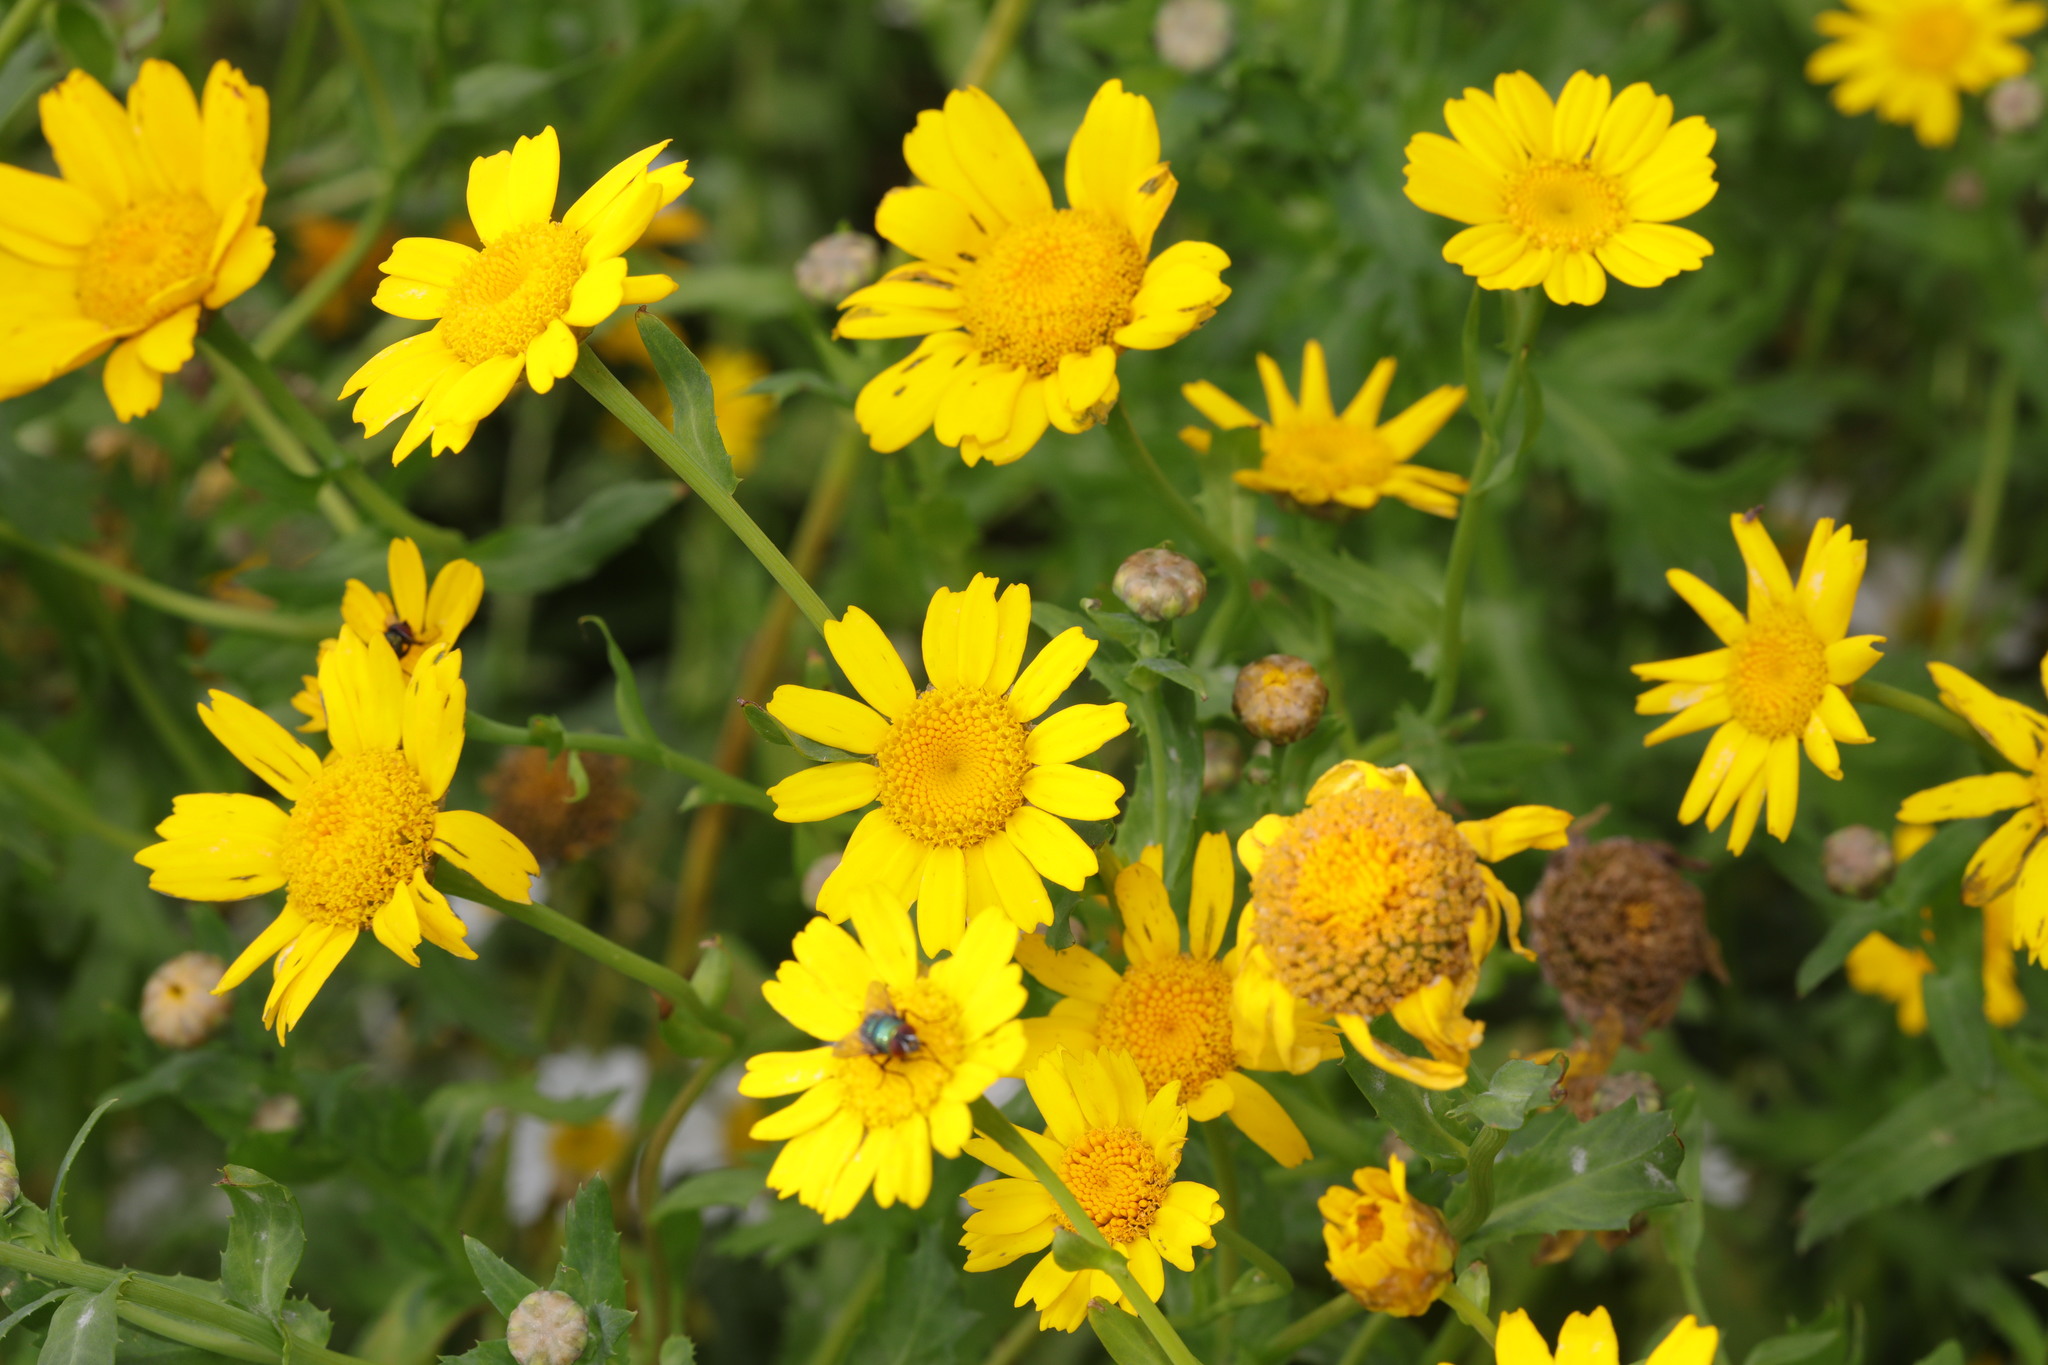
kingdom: Plantae
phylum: Tracheophyta
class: Magnoliopsida
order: Asterales
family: Asteraceae
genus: Glebionis
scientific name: Glebionis segetum
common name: Corndaisy
